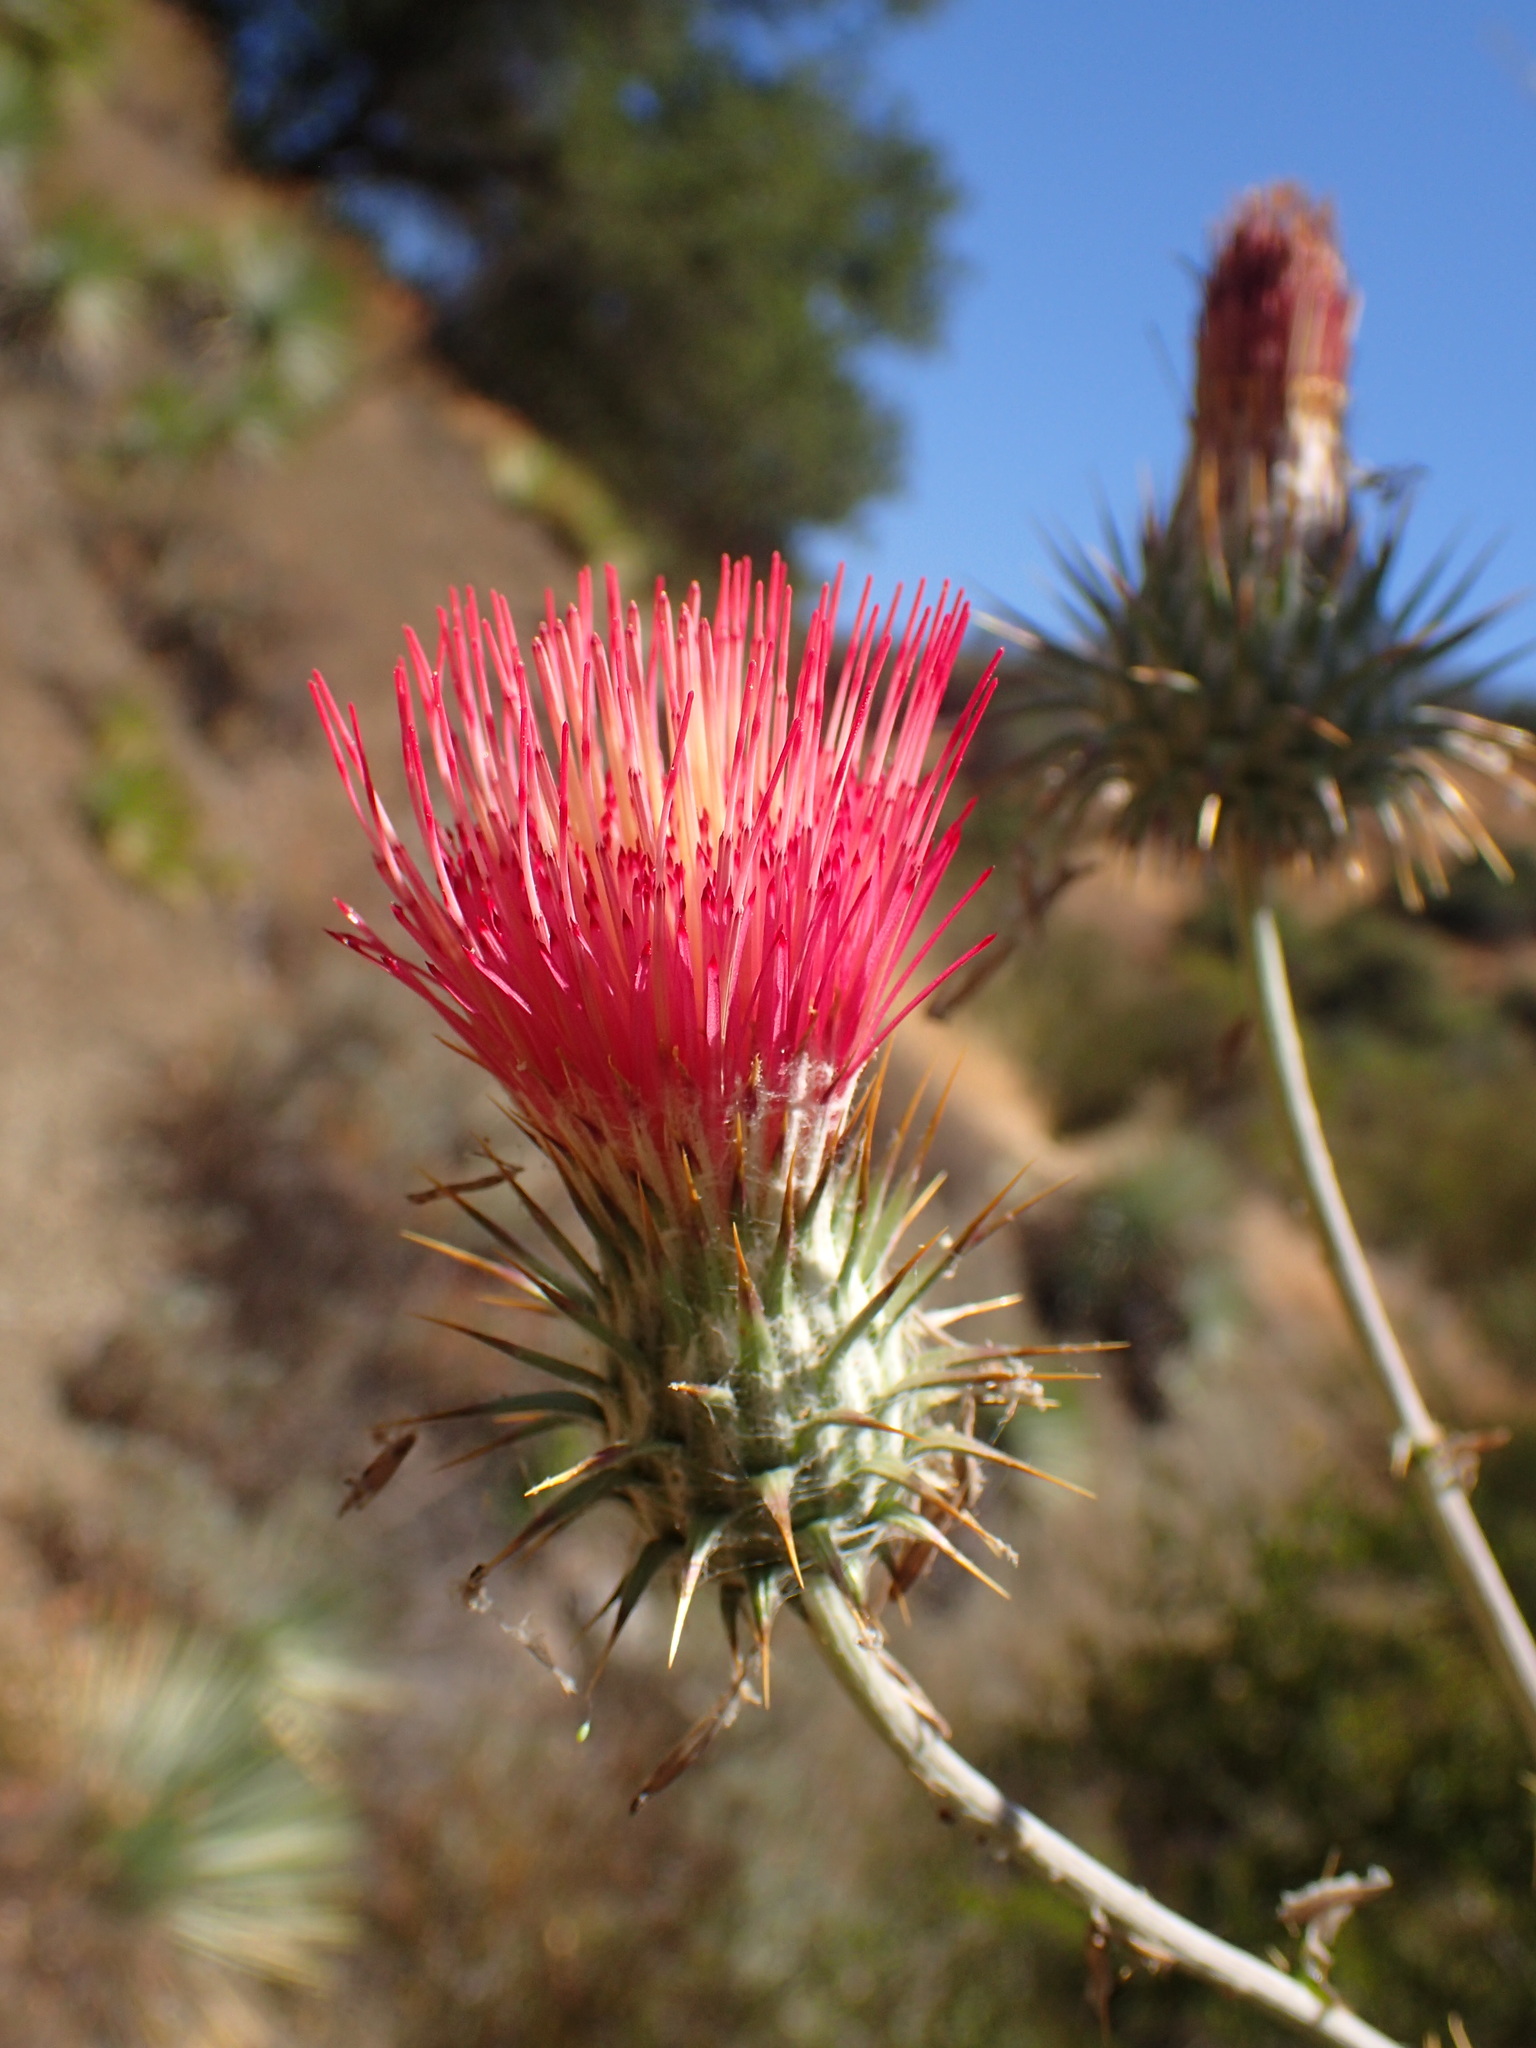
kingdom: Plantae
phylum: Tracheophyta
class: Magnoliopsida
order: Asterales
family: Asteraceae
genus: Cirsium
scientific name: Cirsium occidentale
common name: Western thistle
